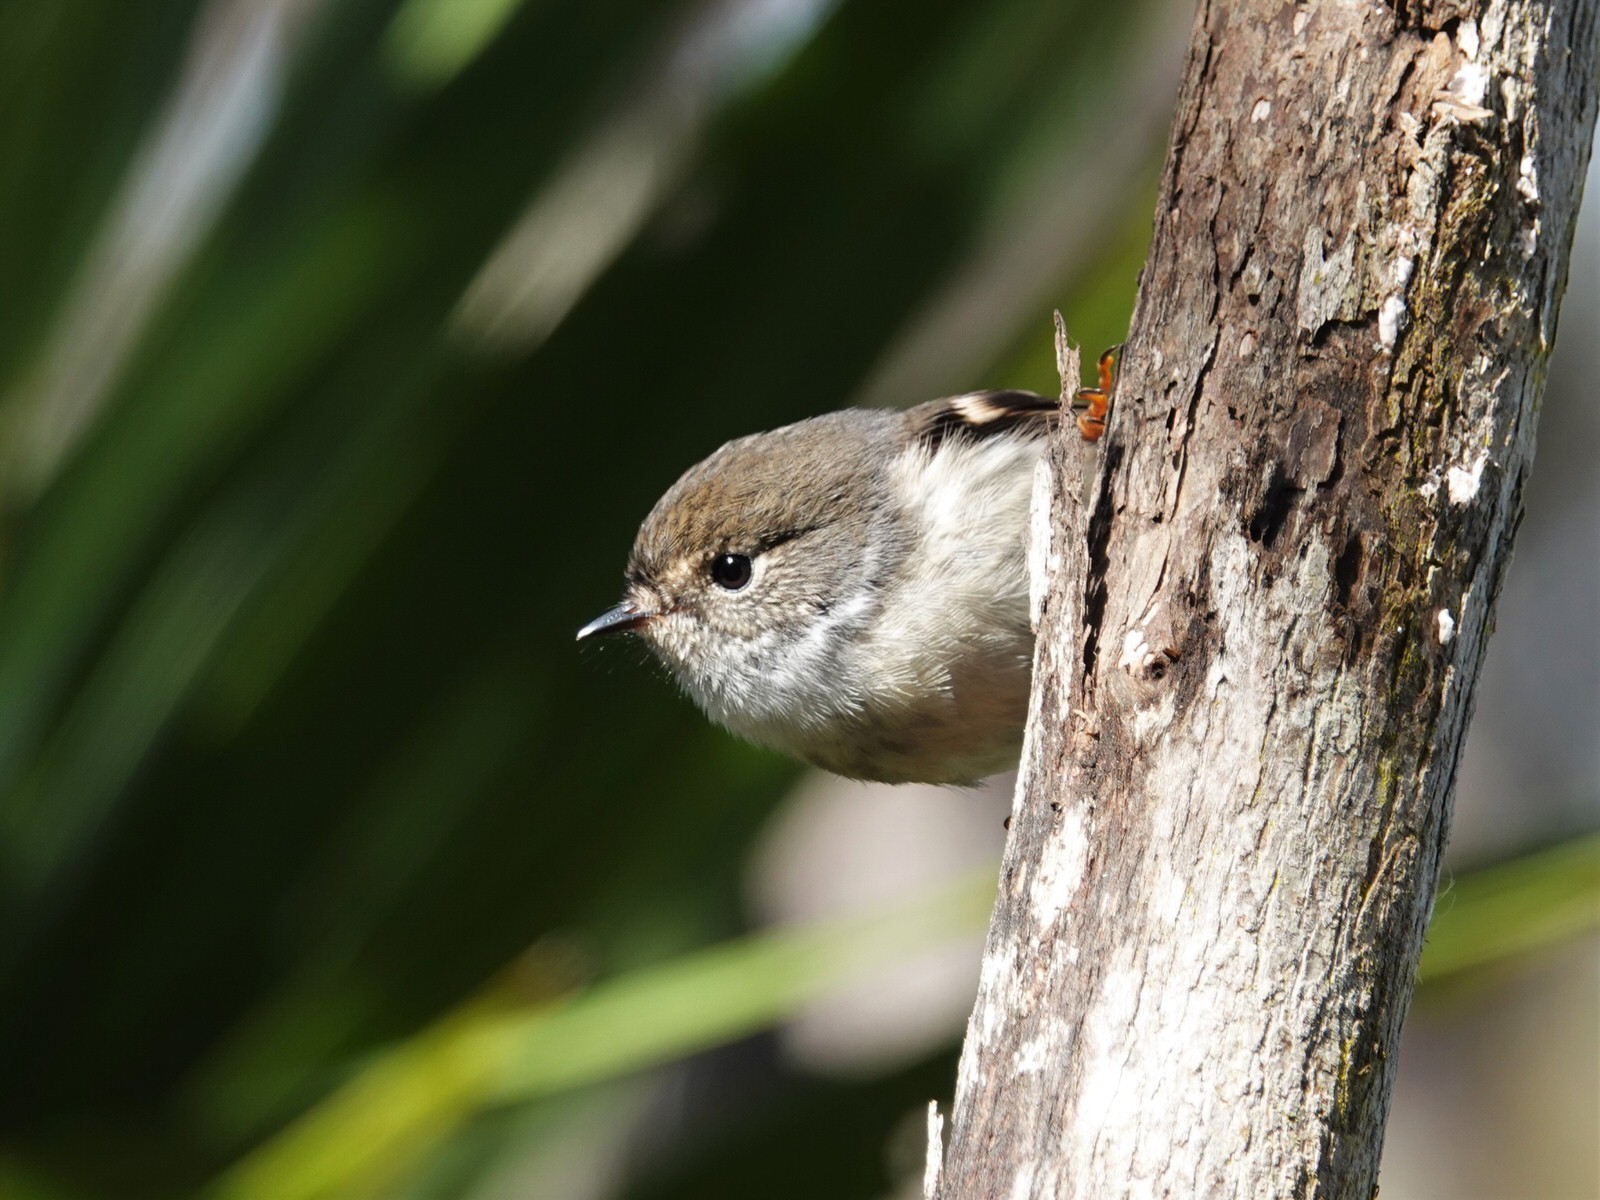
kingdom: Animalia
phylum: Chordata
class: Aves
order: Passeriformes
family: Petroicidae
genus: Petroica
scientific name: Petroica macrocephala
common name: Tomtit
